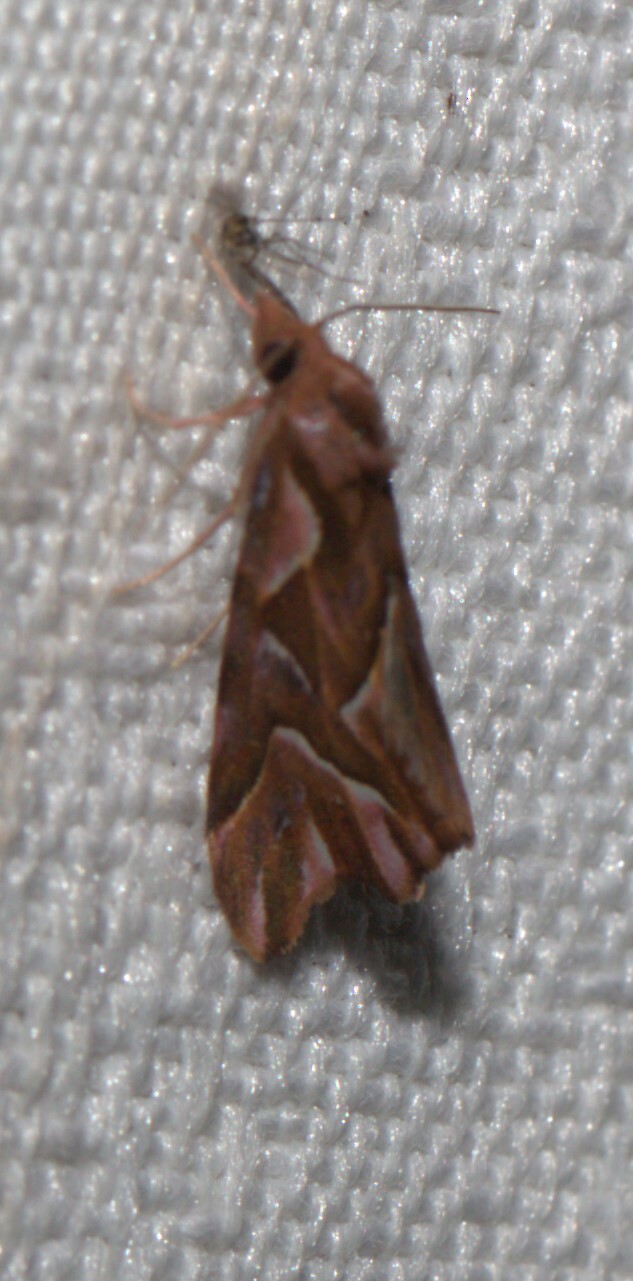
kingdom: Animalia
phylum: Arthropoda
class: Insecta
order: Lepidoptera
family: Noctuidae
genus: Clytoscopa
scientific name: Clytoscopa iorrhoda
